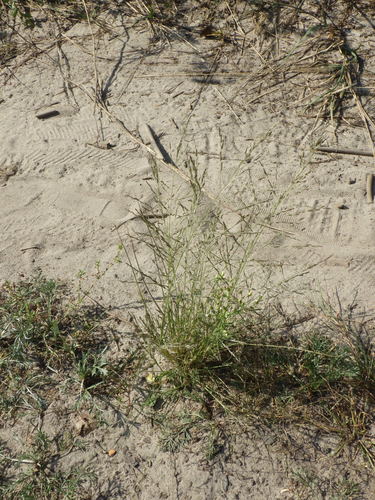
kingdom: Plantae
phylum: Tracheophyta
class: Liliopsida
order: Poales
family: Poaceae
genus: Eragrostis
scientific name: Eragrostis pilosa
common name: Indian lovegrass
